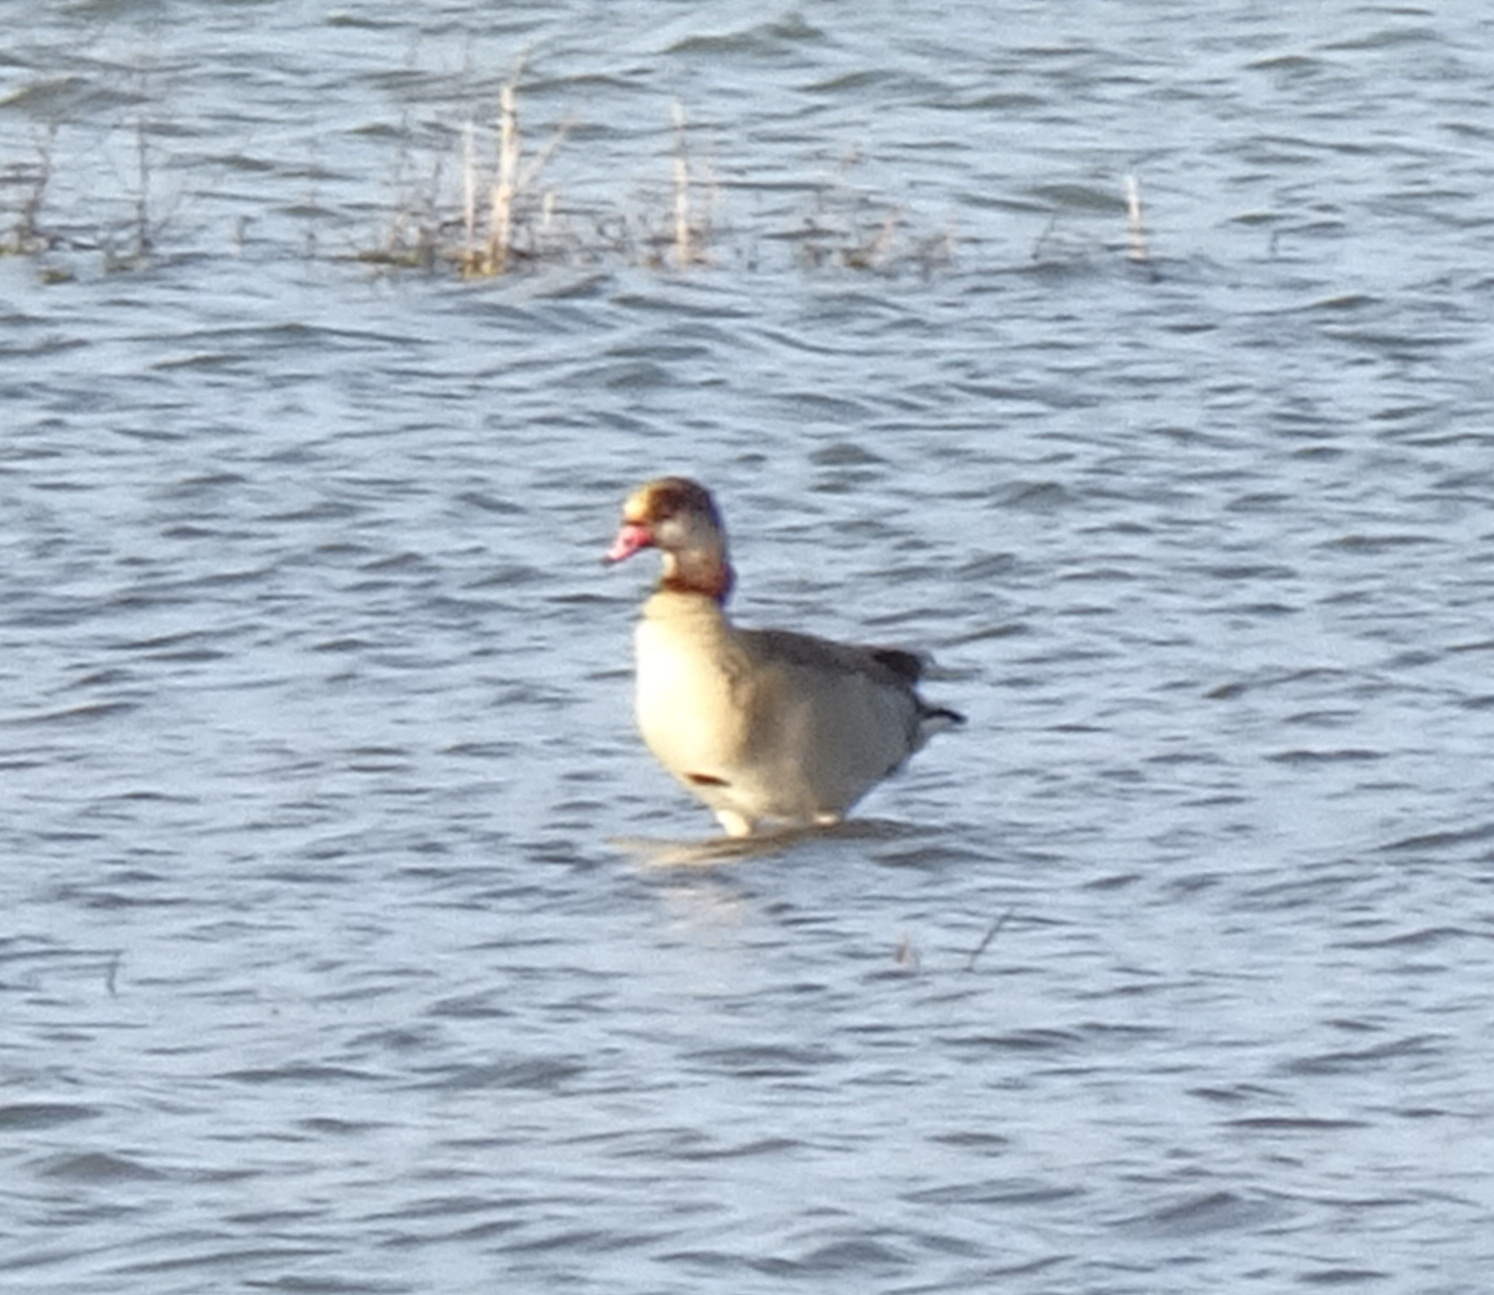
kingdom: Animalia
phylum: Chordata
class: Aves
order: Anseriformes
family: Anatidae
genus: Alopochen
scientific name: Alopochen aegyptiaca
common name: Egyptian goose
